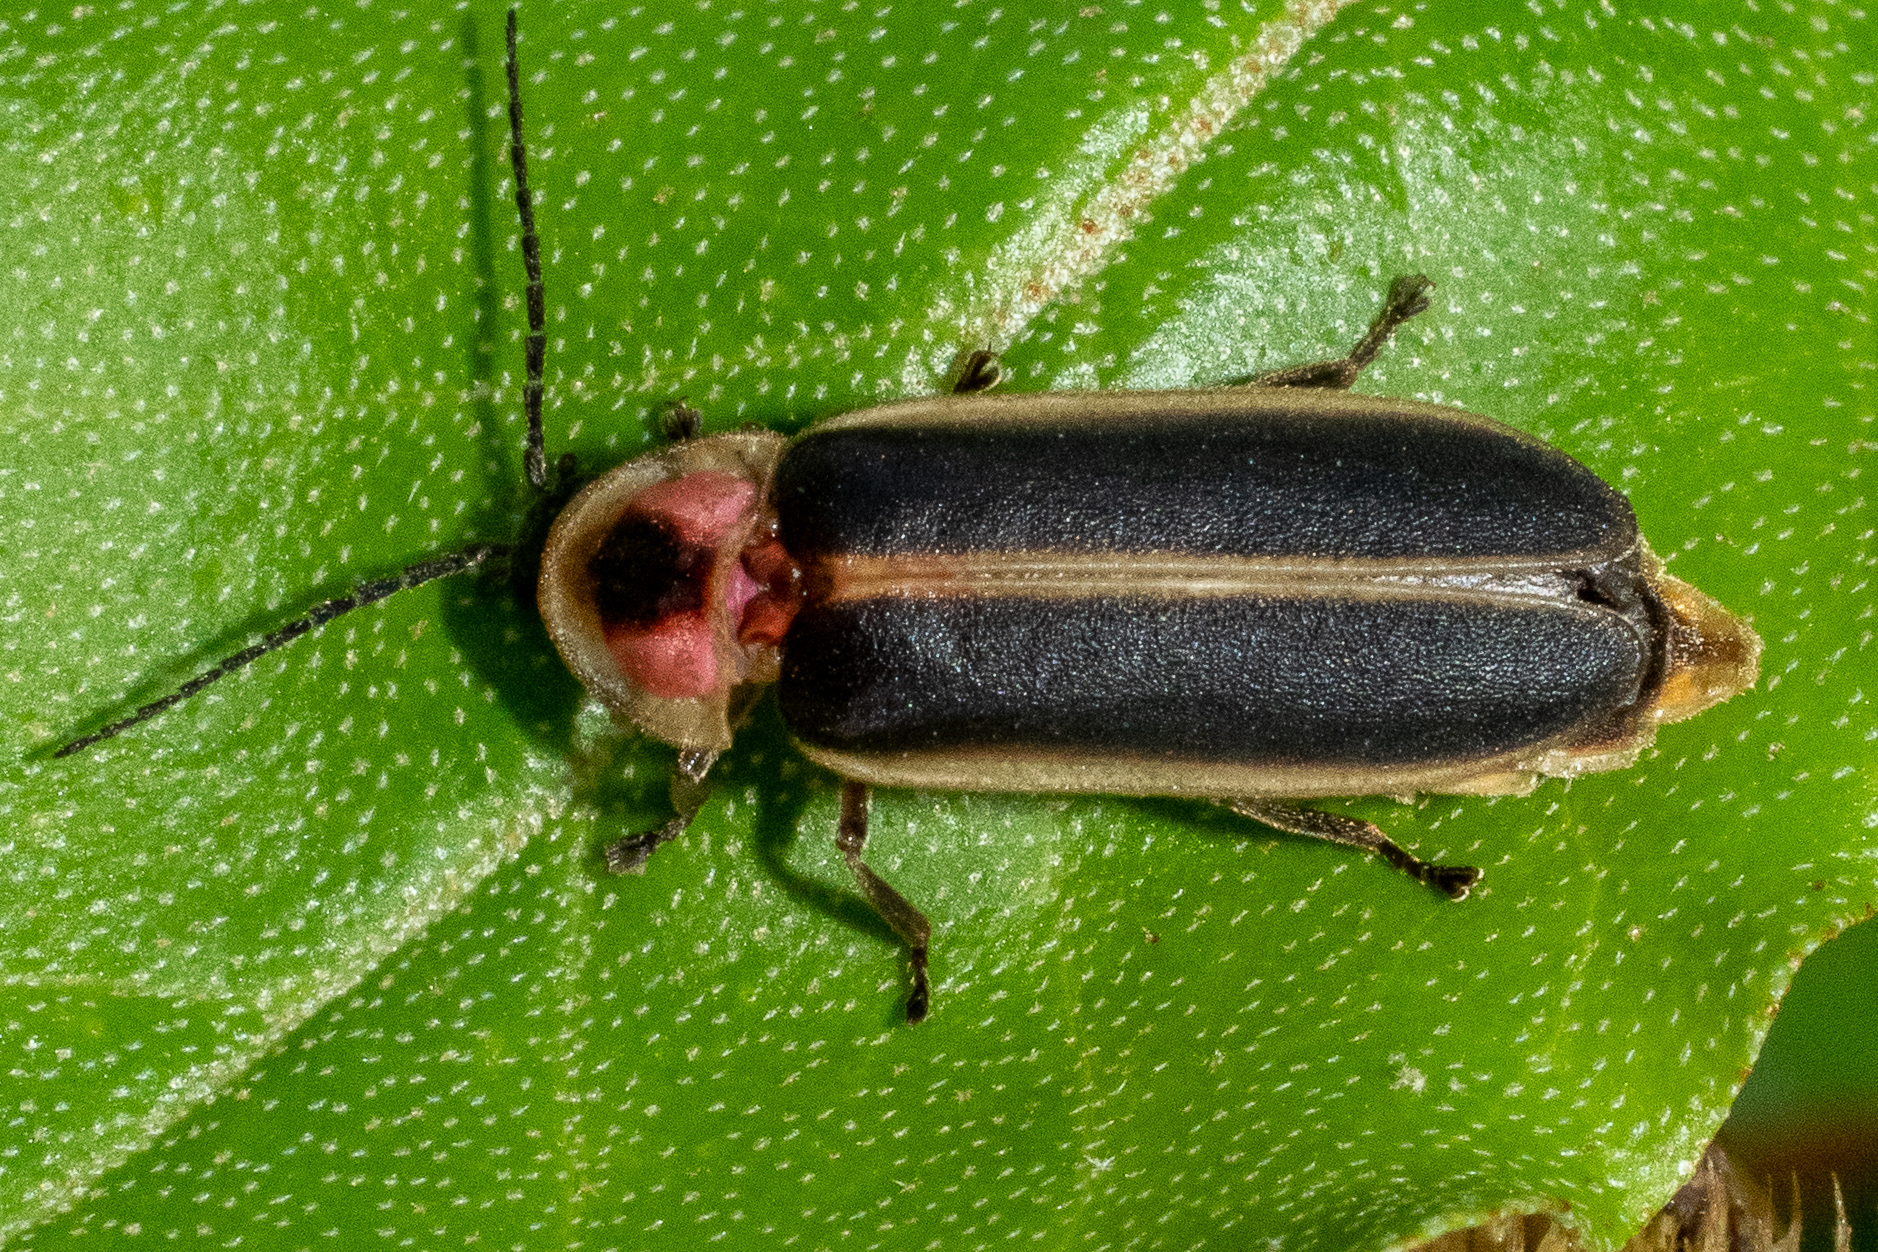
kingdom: Animalia
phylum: Arthropoda
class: Insecta
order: Coleoptera
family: Lampyridae
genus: Photinus
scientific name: Photinus pyralis
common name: Big dipper firefly
